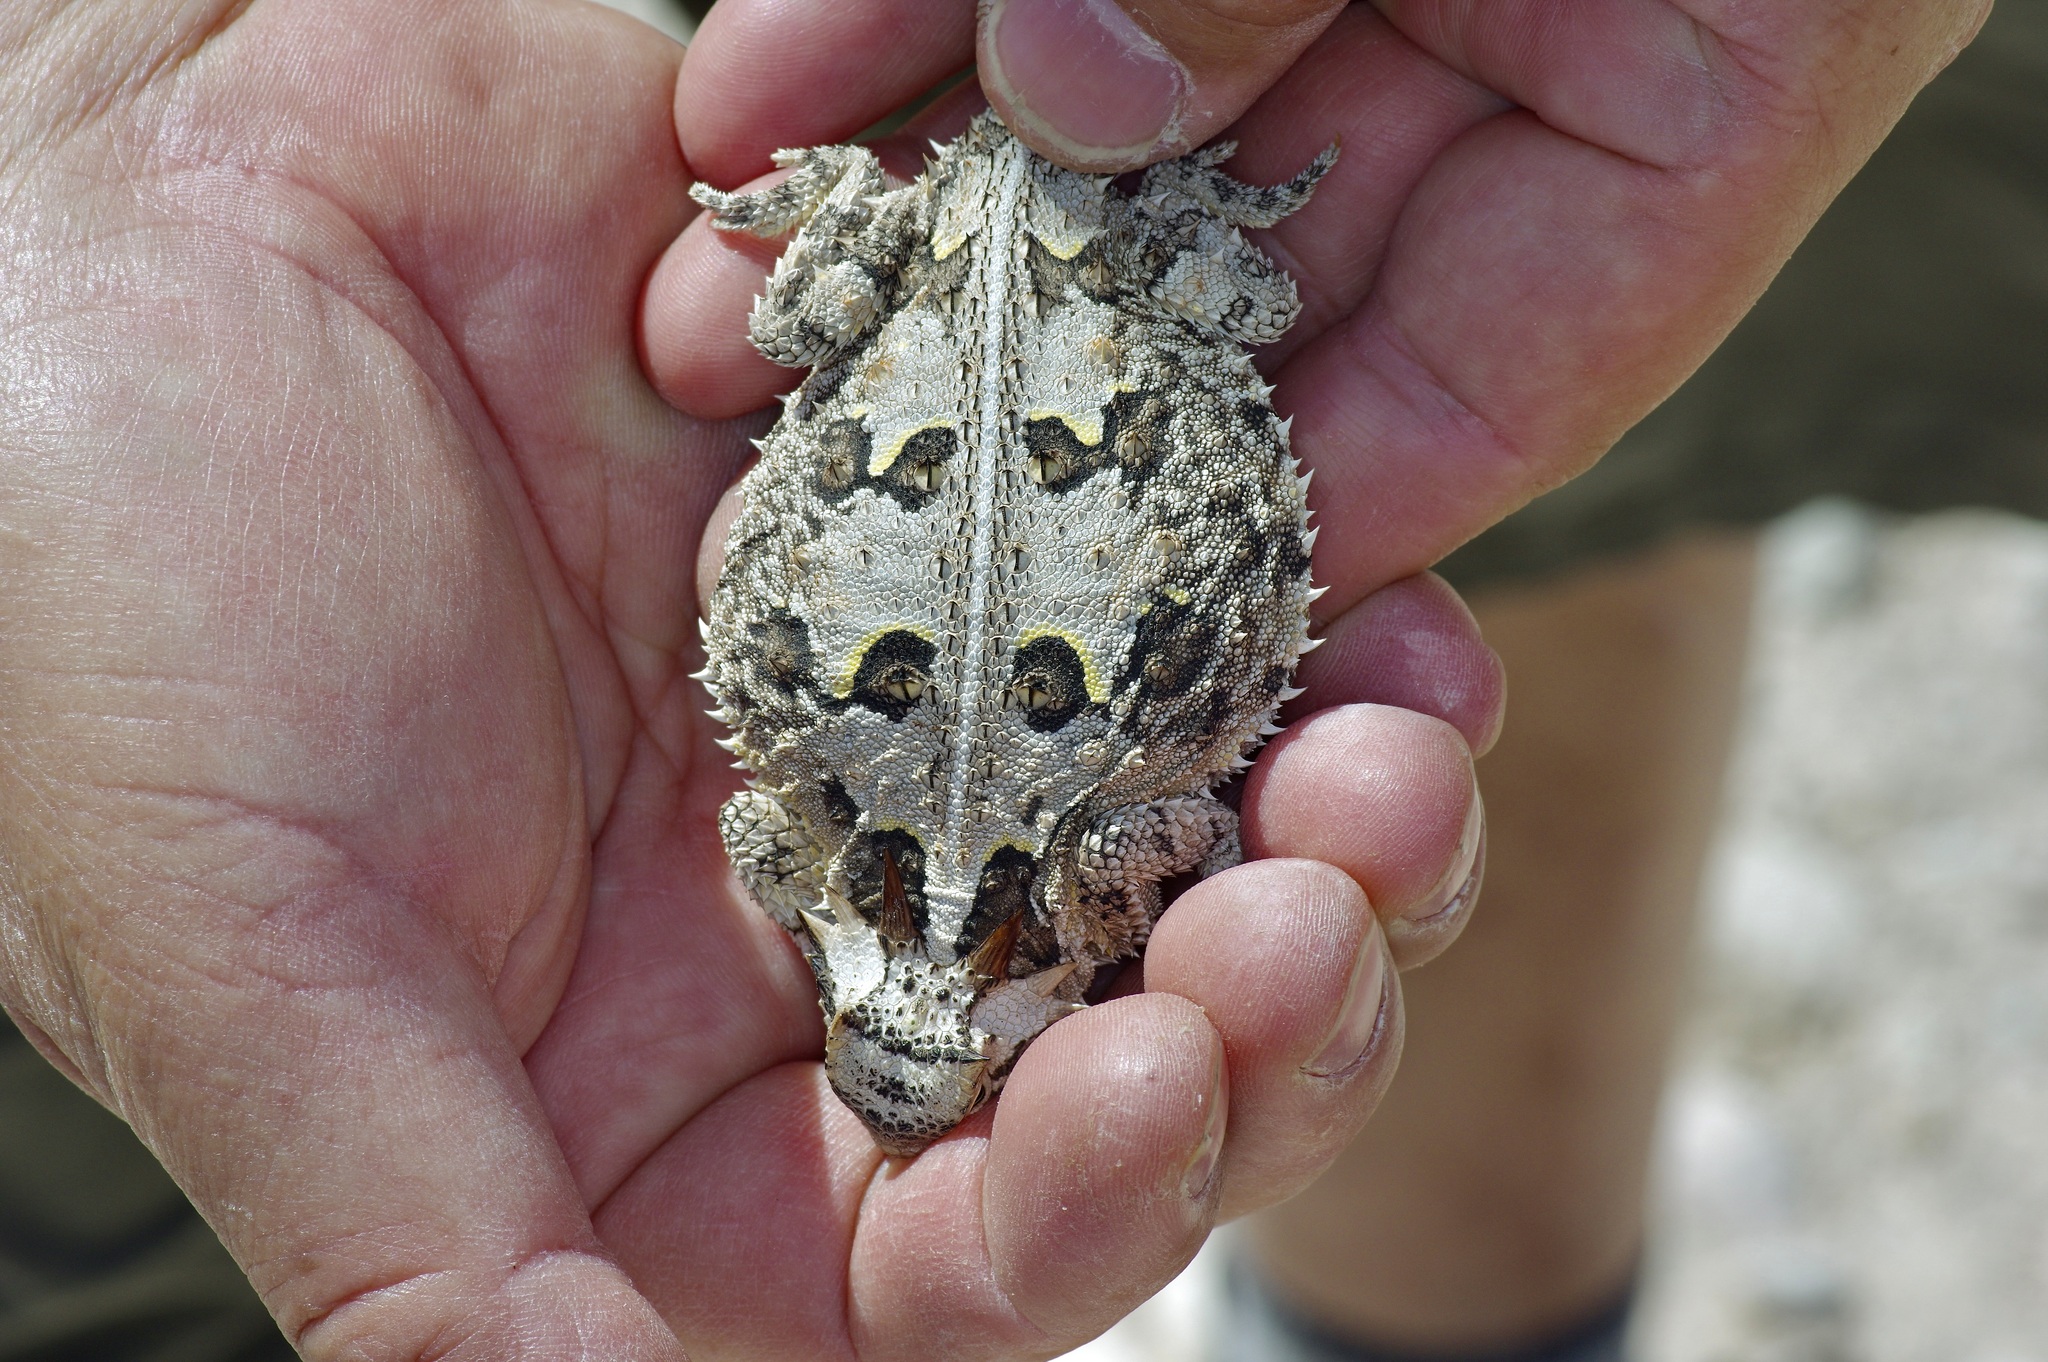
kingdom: Animalia
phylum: Chordata
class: Squamata
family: Phrynosomatidae
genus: Phrynosoma
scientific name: Phrynosoma cornutum
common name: Texas horned lizard
